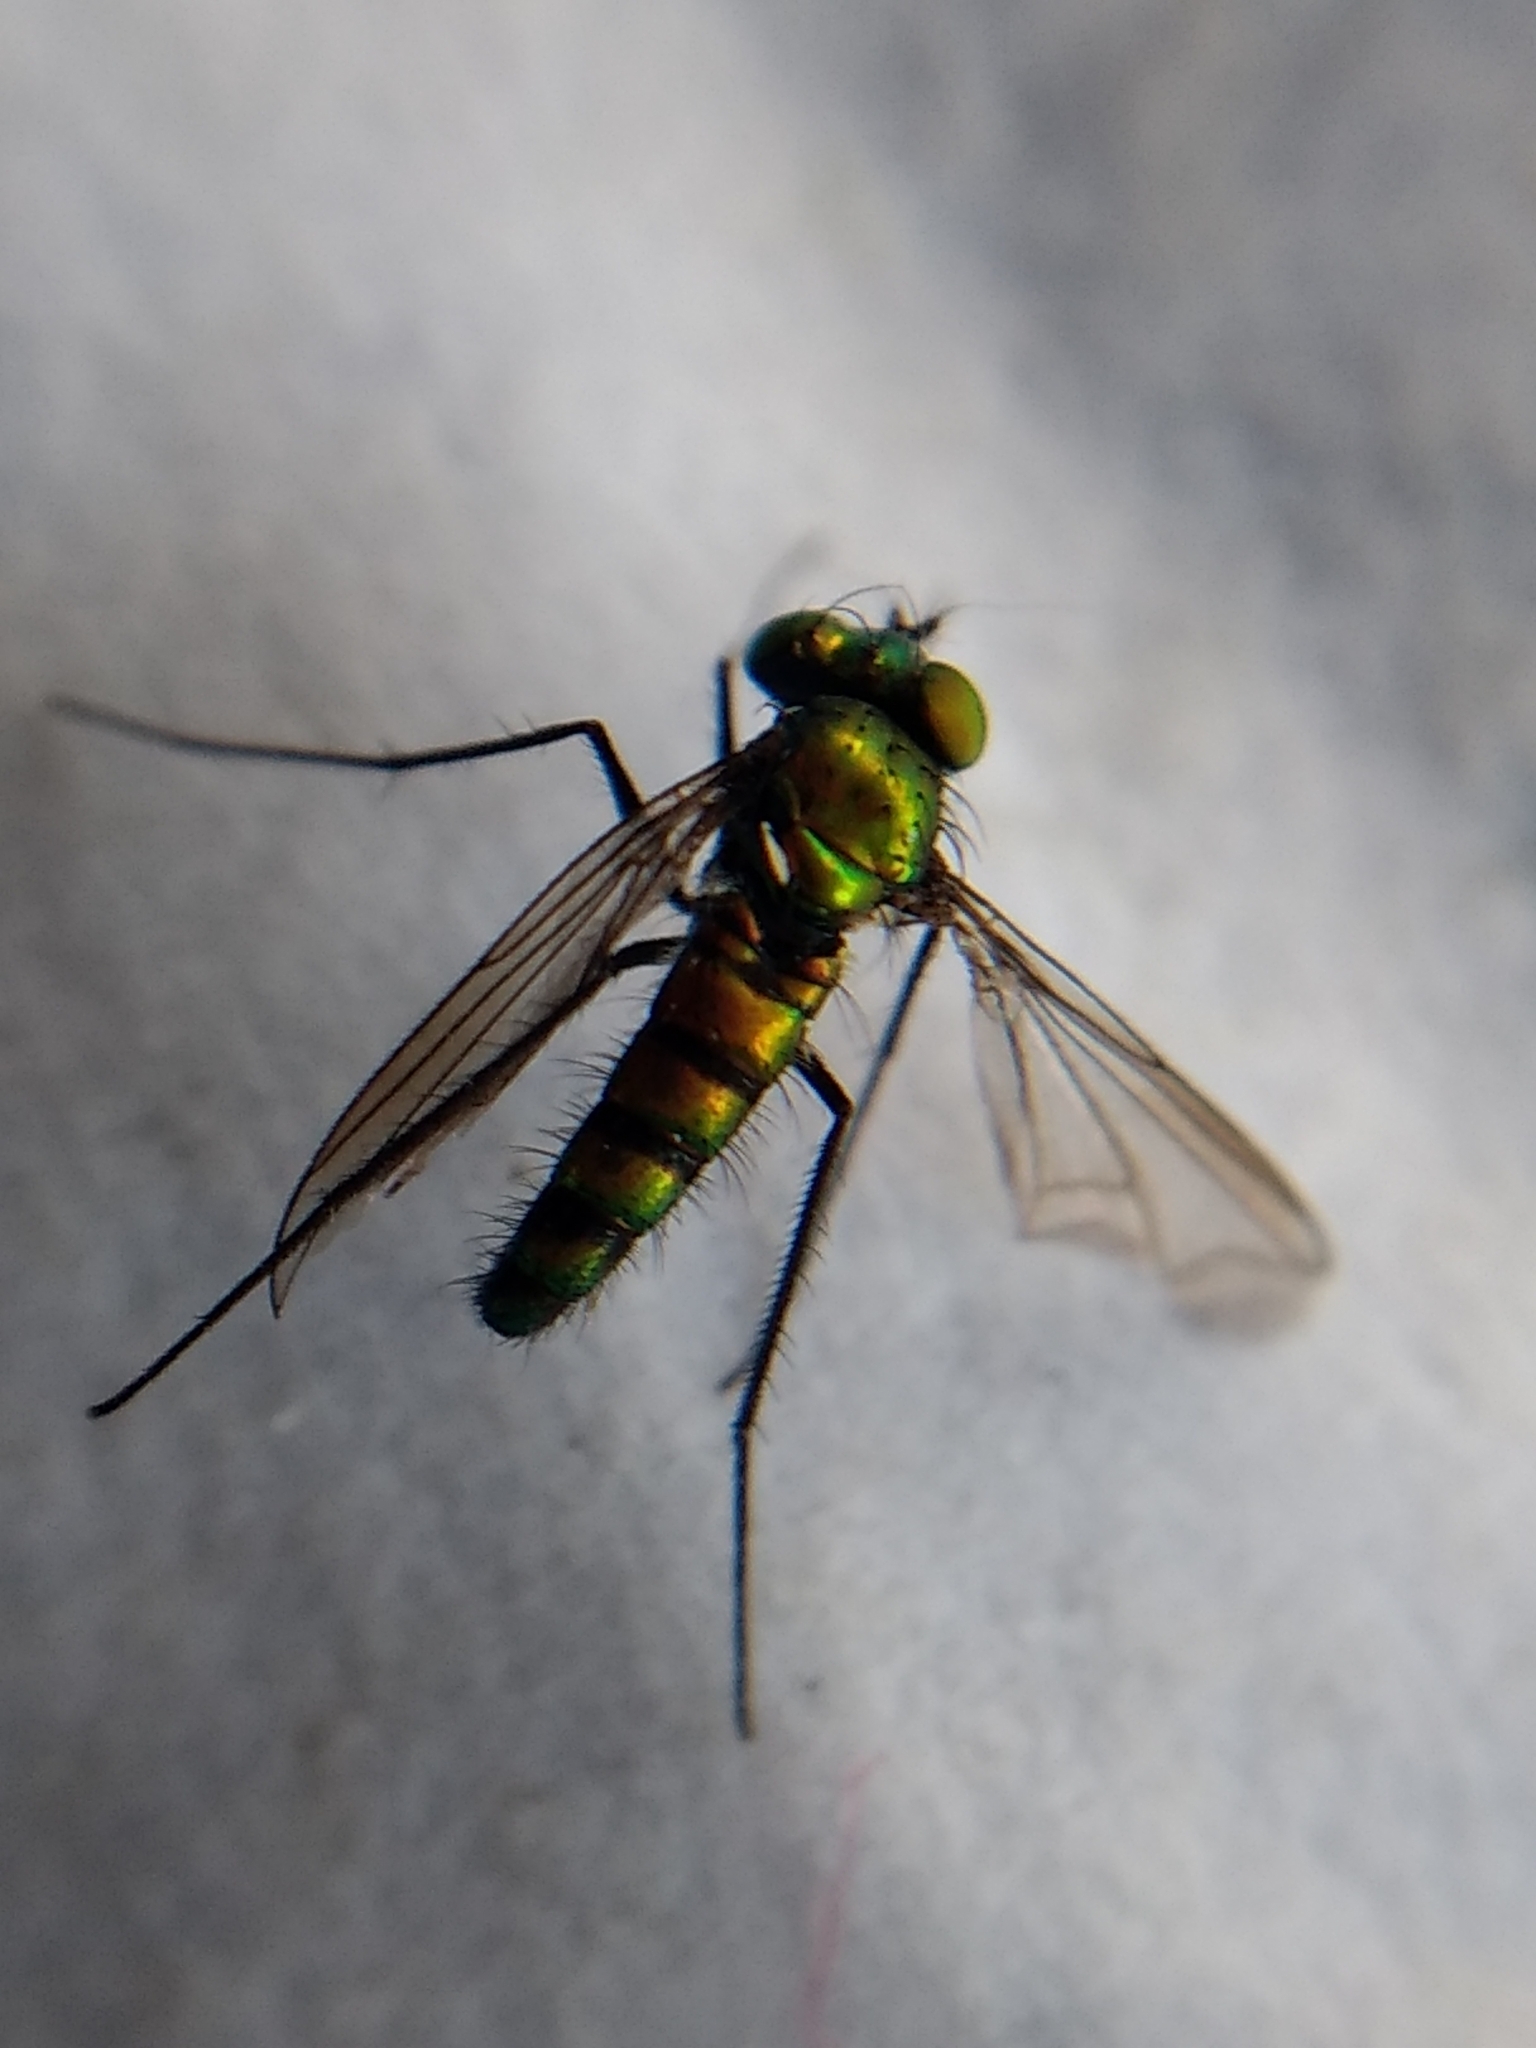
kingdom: Animalia
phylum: Arthropoda
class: Insecta
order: Diptera
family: Dolichopodidae
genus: Condylostylus
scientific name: Condylostylus longicornis
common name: Long-legged fly
